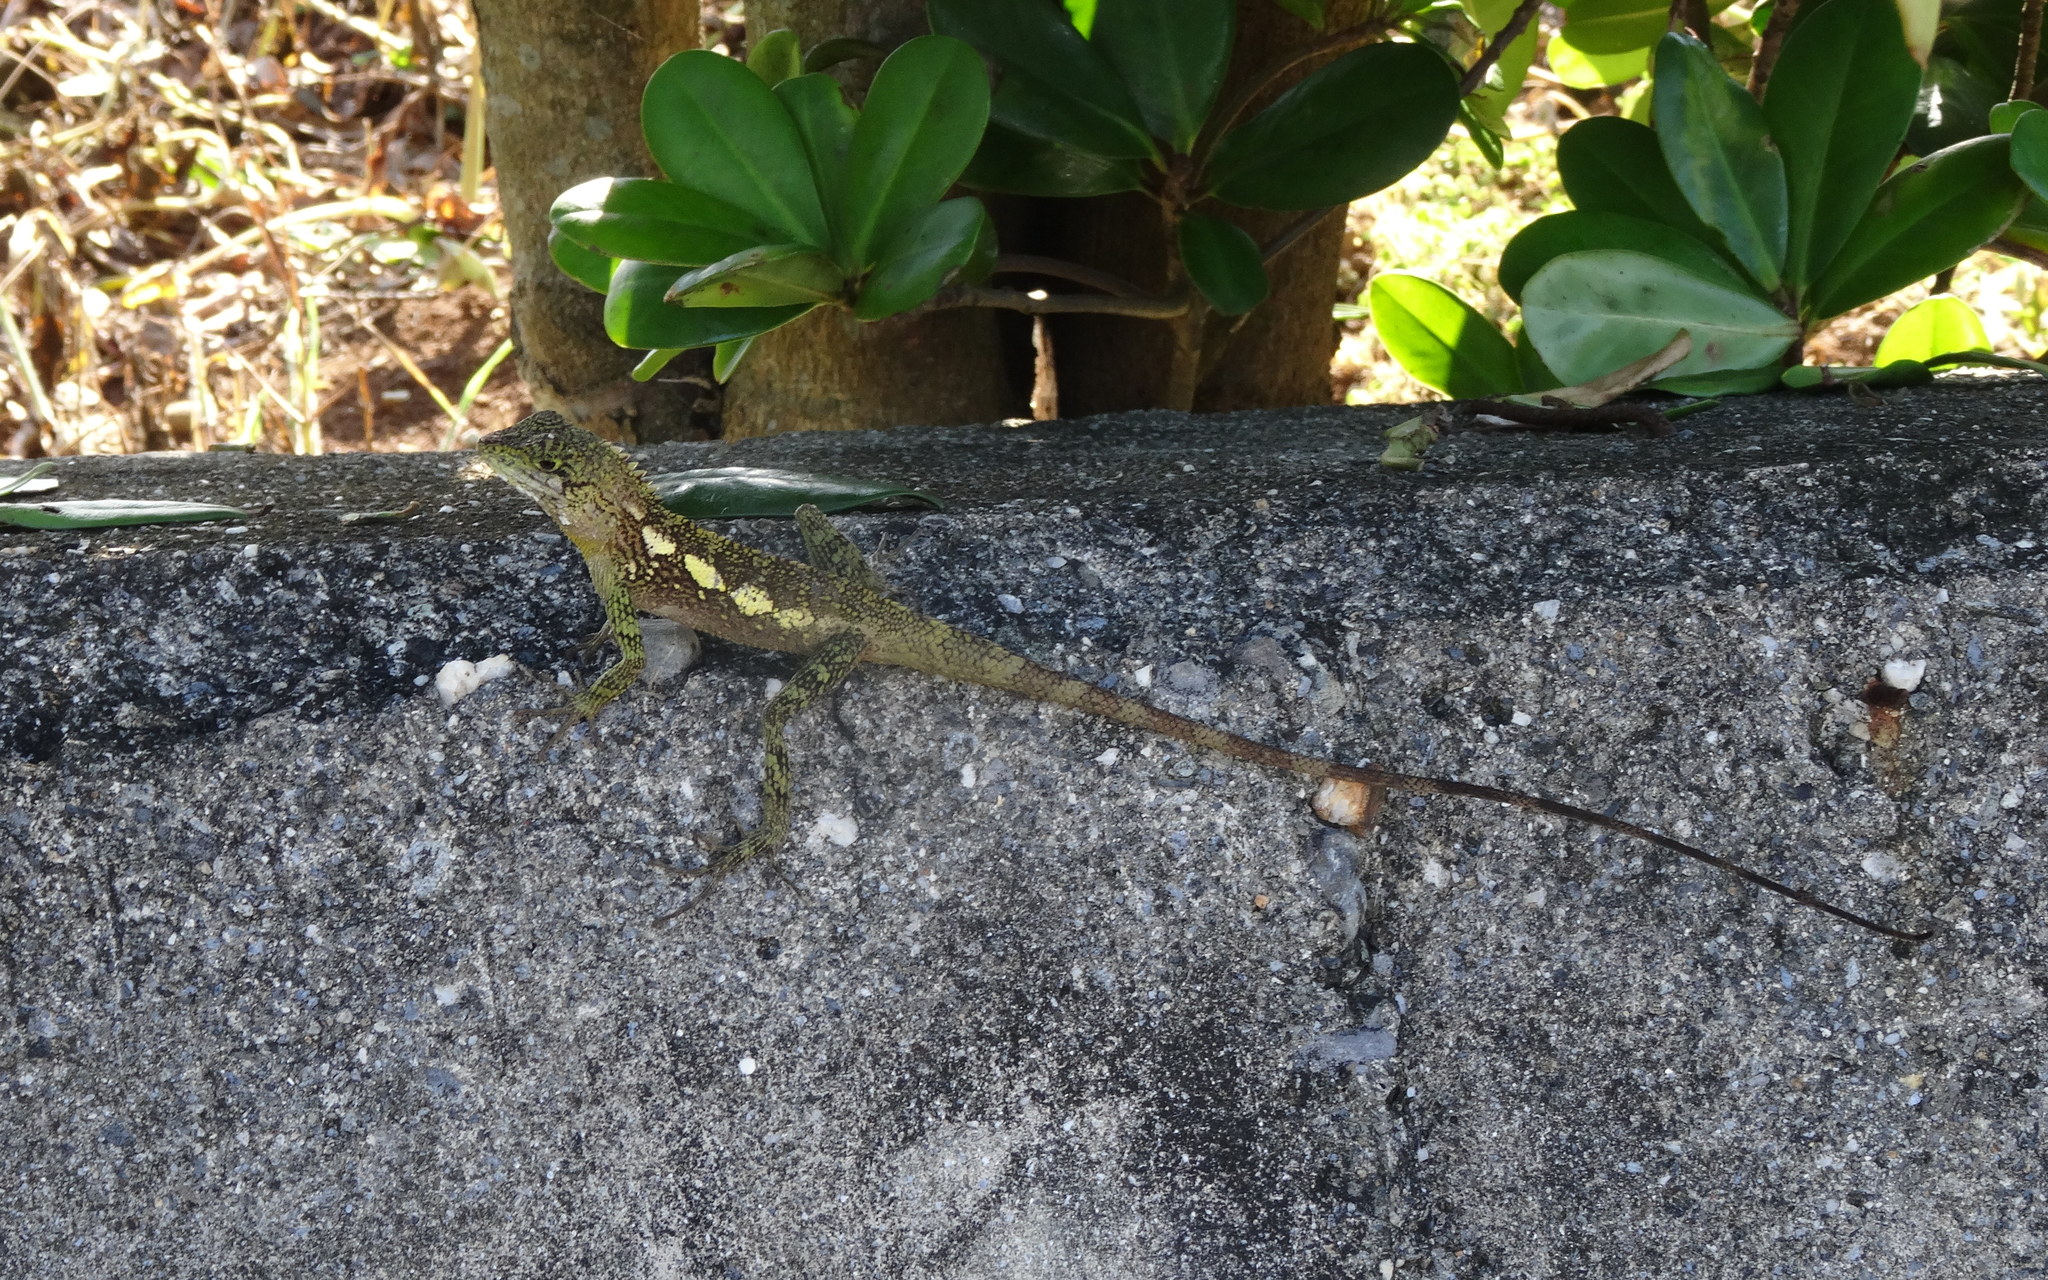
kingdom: Animalia
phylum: Chordata
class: Squamata
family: Agamidae
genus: Diploderma
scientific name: Diploderma swinhonis
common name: Taiwan japalure
